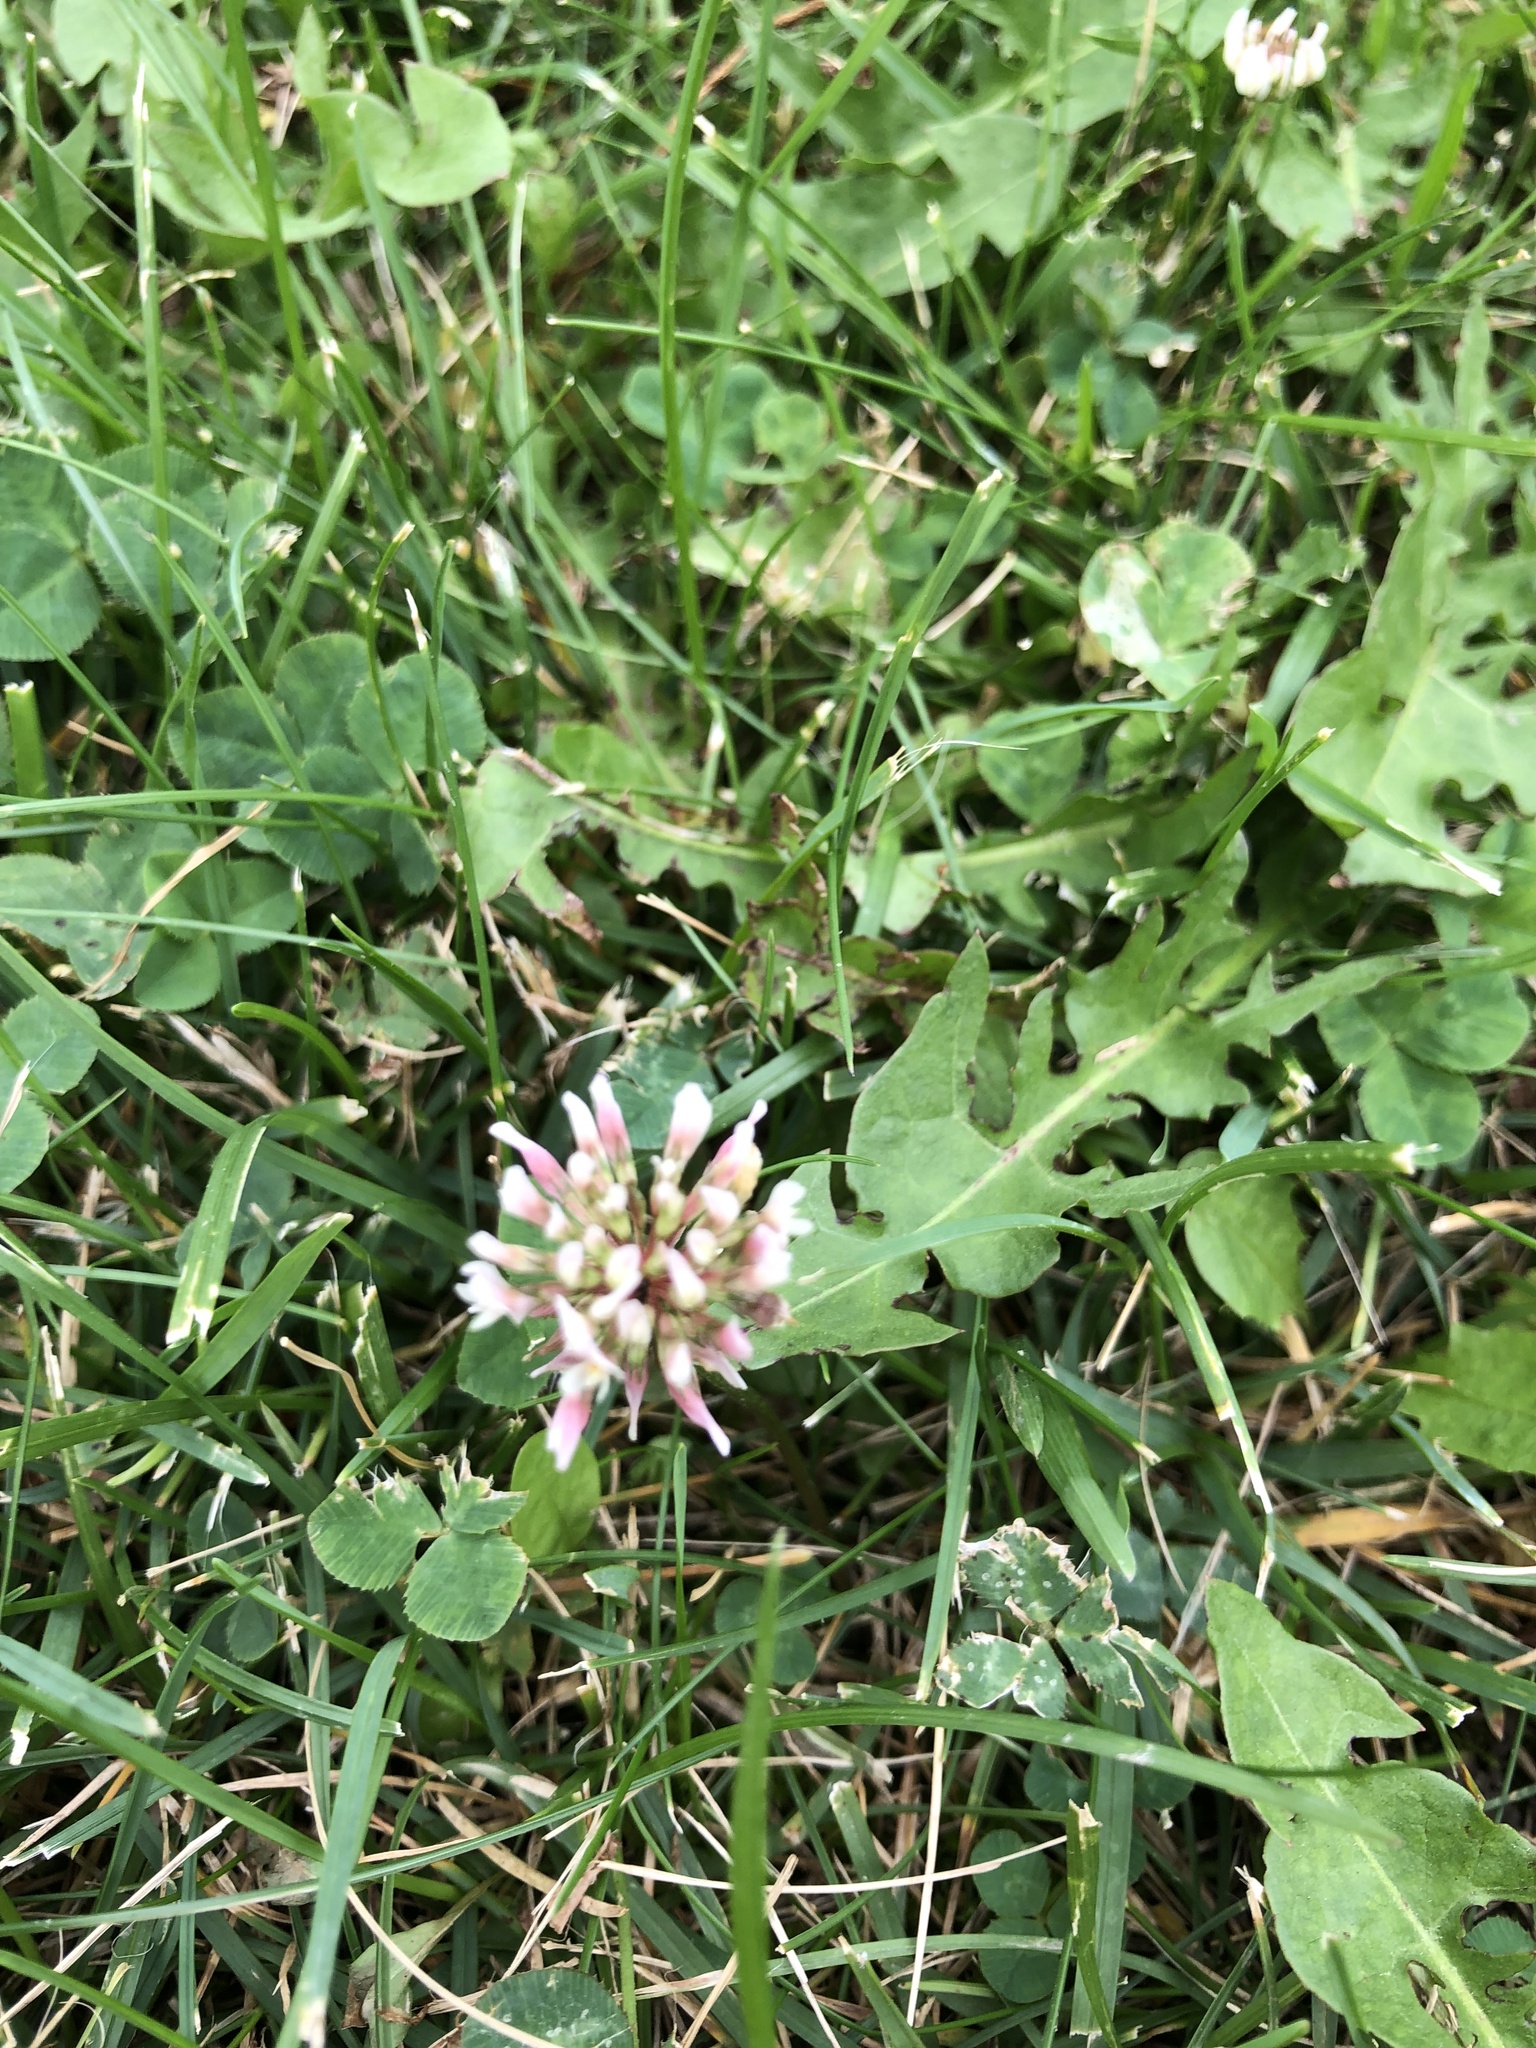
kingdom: Plantae
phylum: Tracheophyta
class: Magnoliopsida
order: Fabales
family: Fabaceae
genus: Trifolium
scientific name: Trifolium repens
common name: White clover
